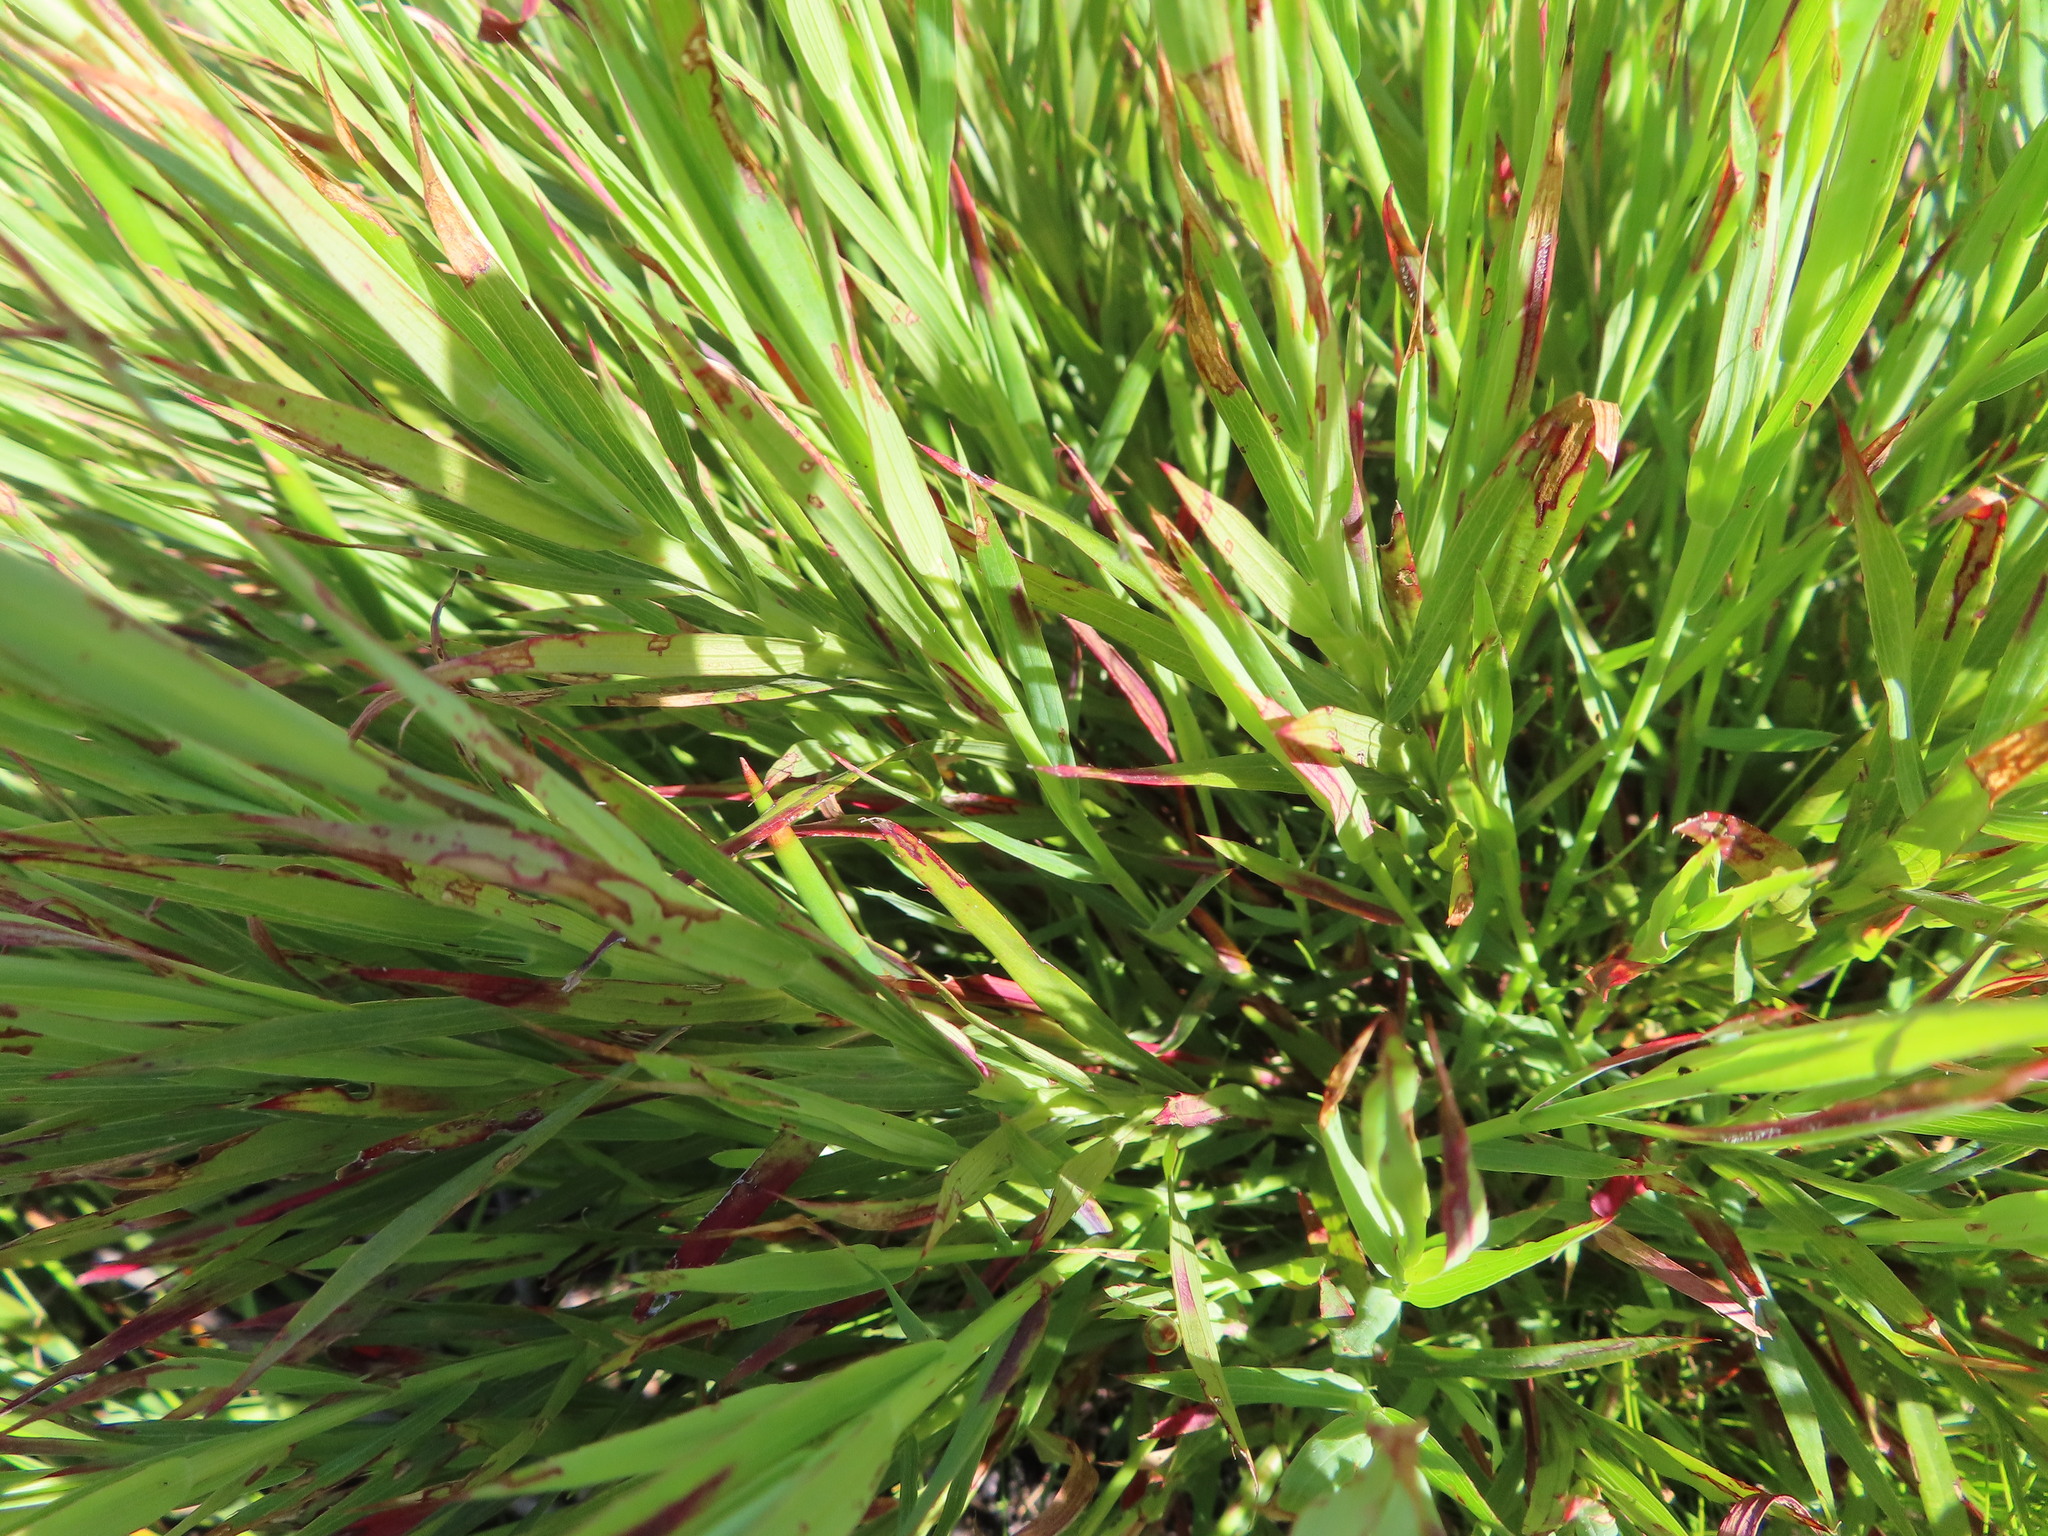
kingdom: Plantae
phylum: Tracheophyta
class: Magnoliopsida
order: Rosales
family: Rosaceae
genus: Cliffortia
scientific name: Cliffortia graminea
